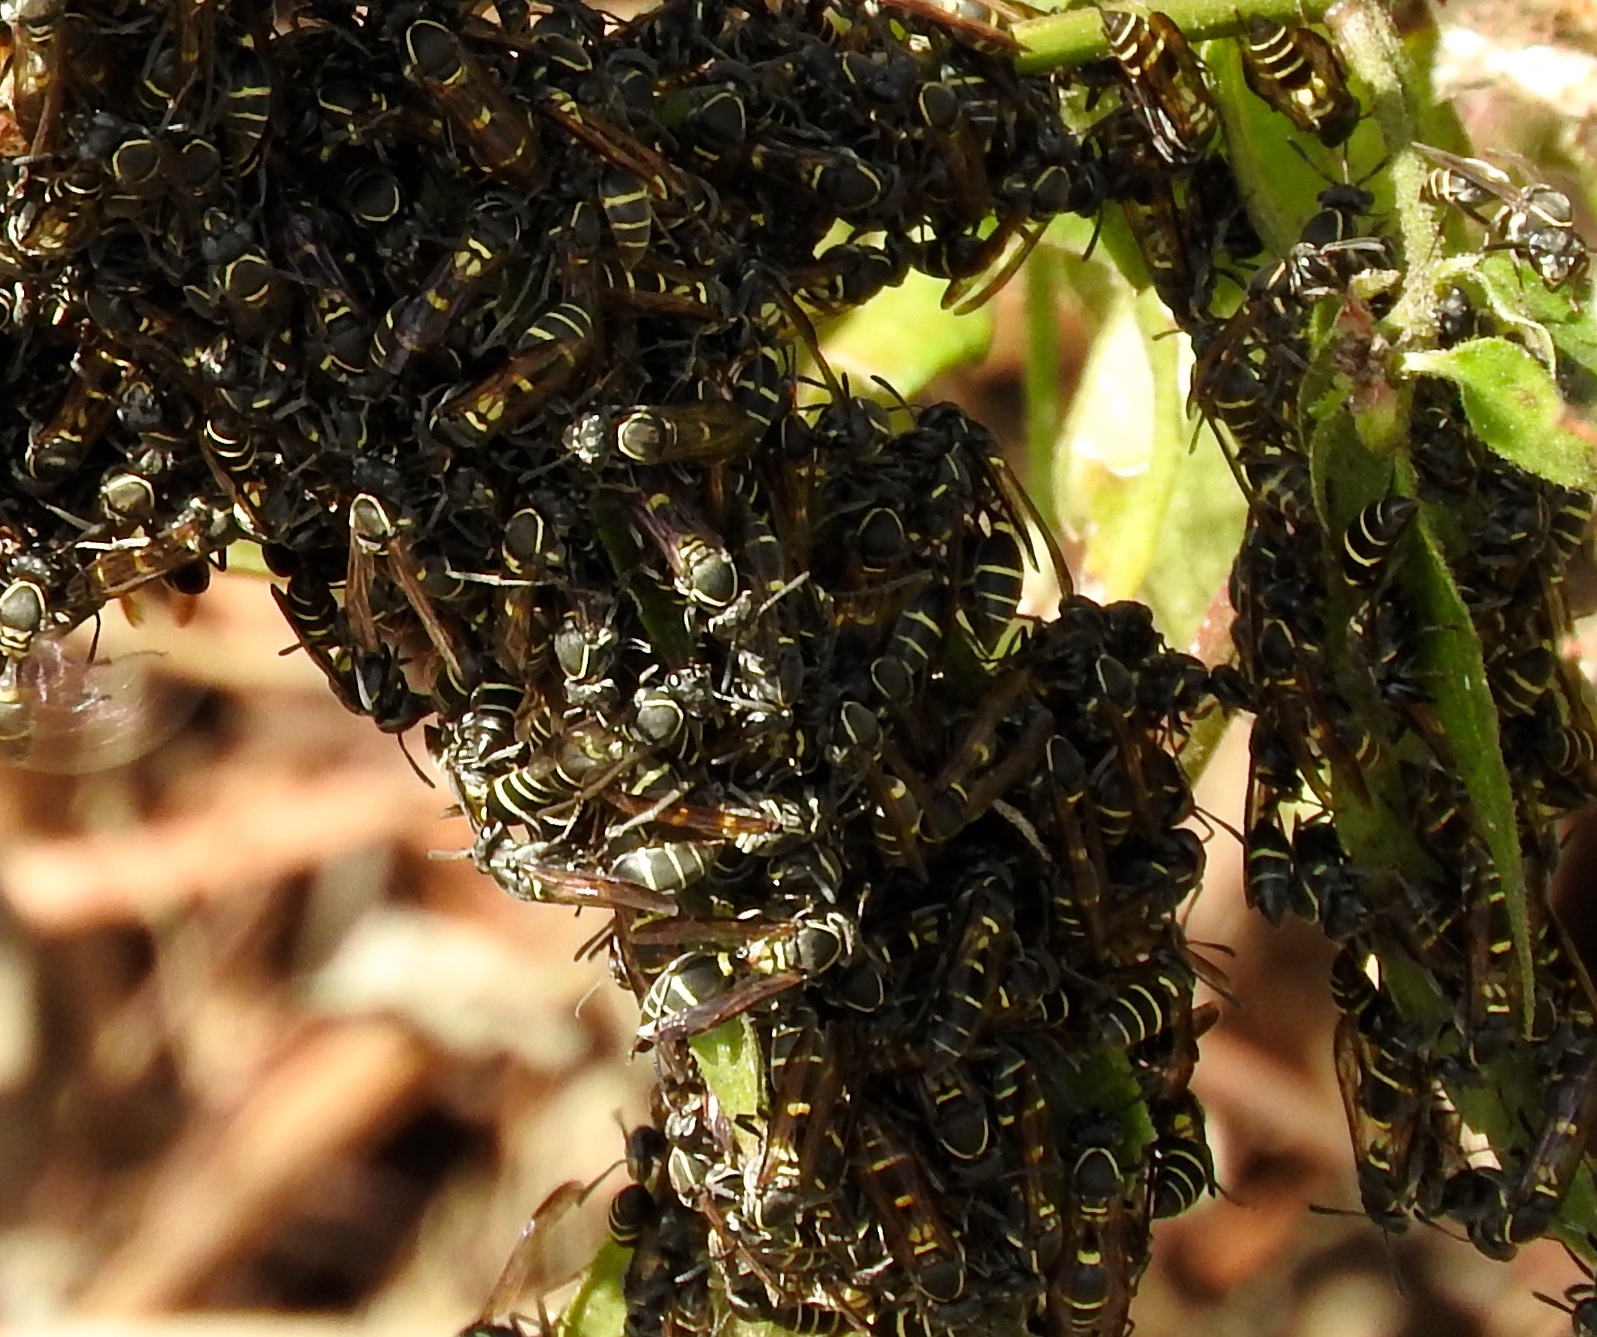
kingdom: Animalia
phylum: Arthropoda
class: Insecta
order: Hymenoptera
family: Vespidae
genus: Myrapetra
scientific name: Myrapetra
